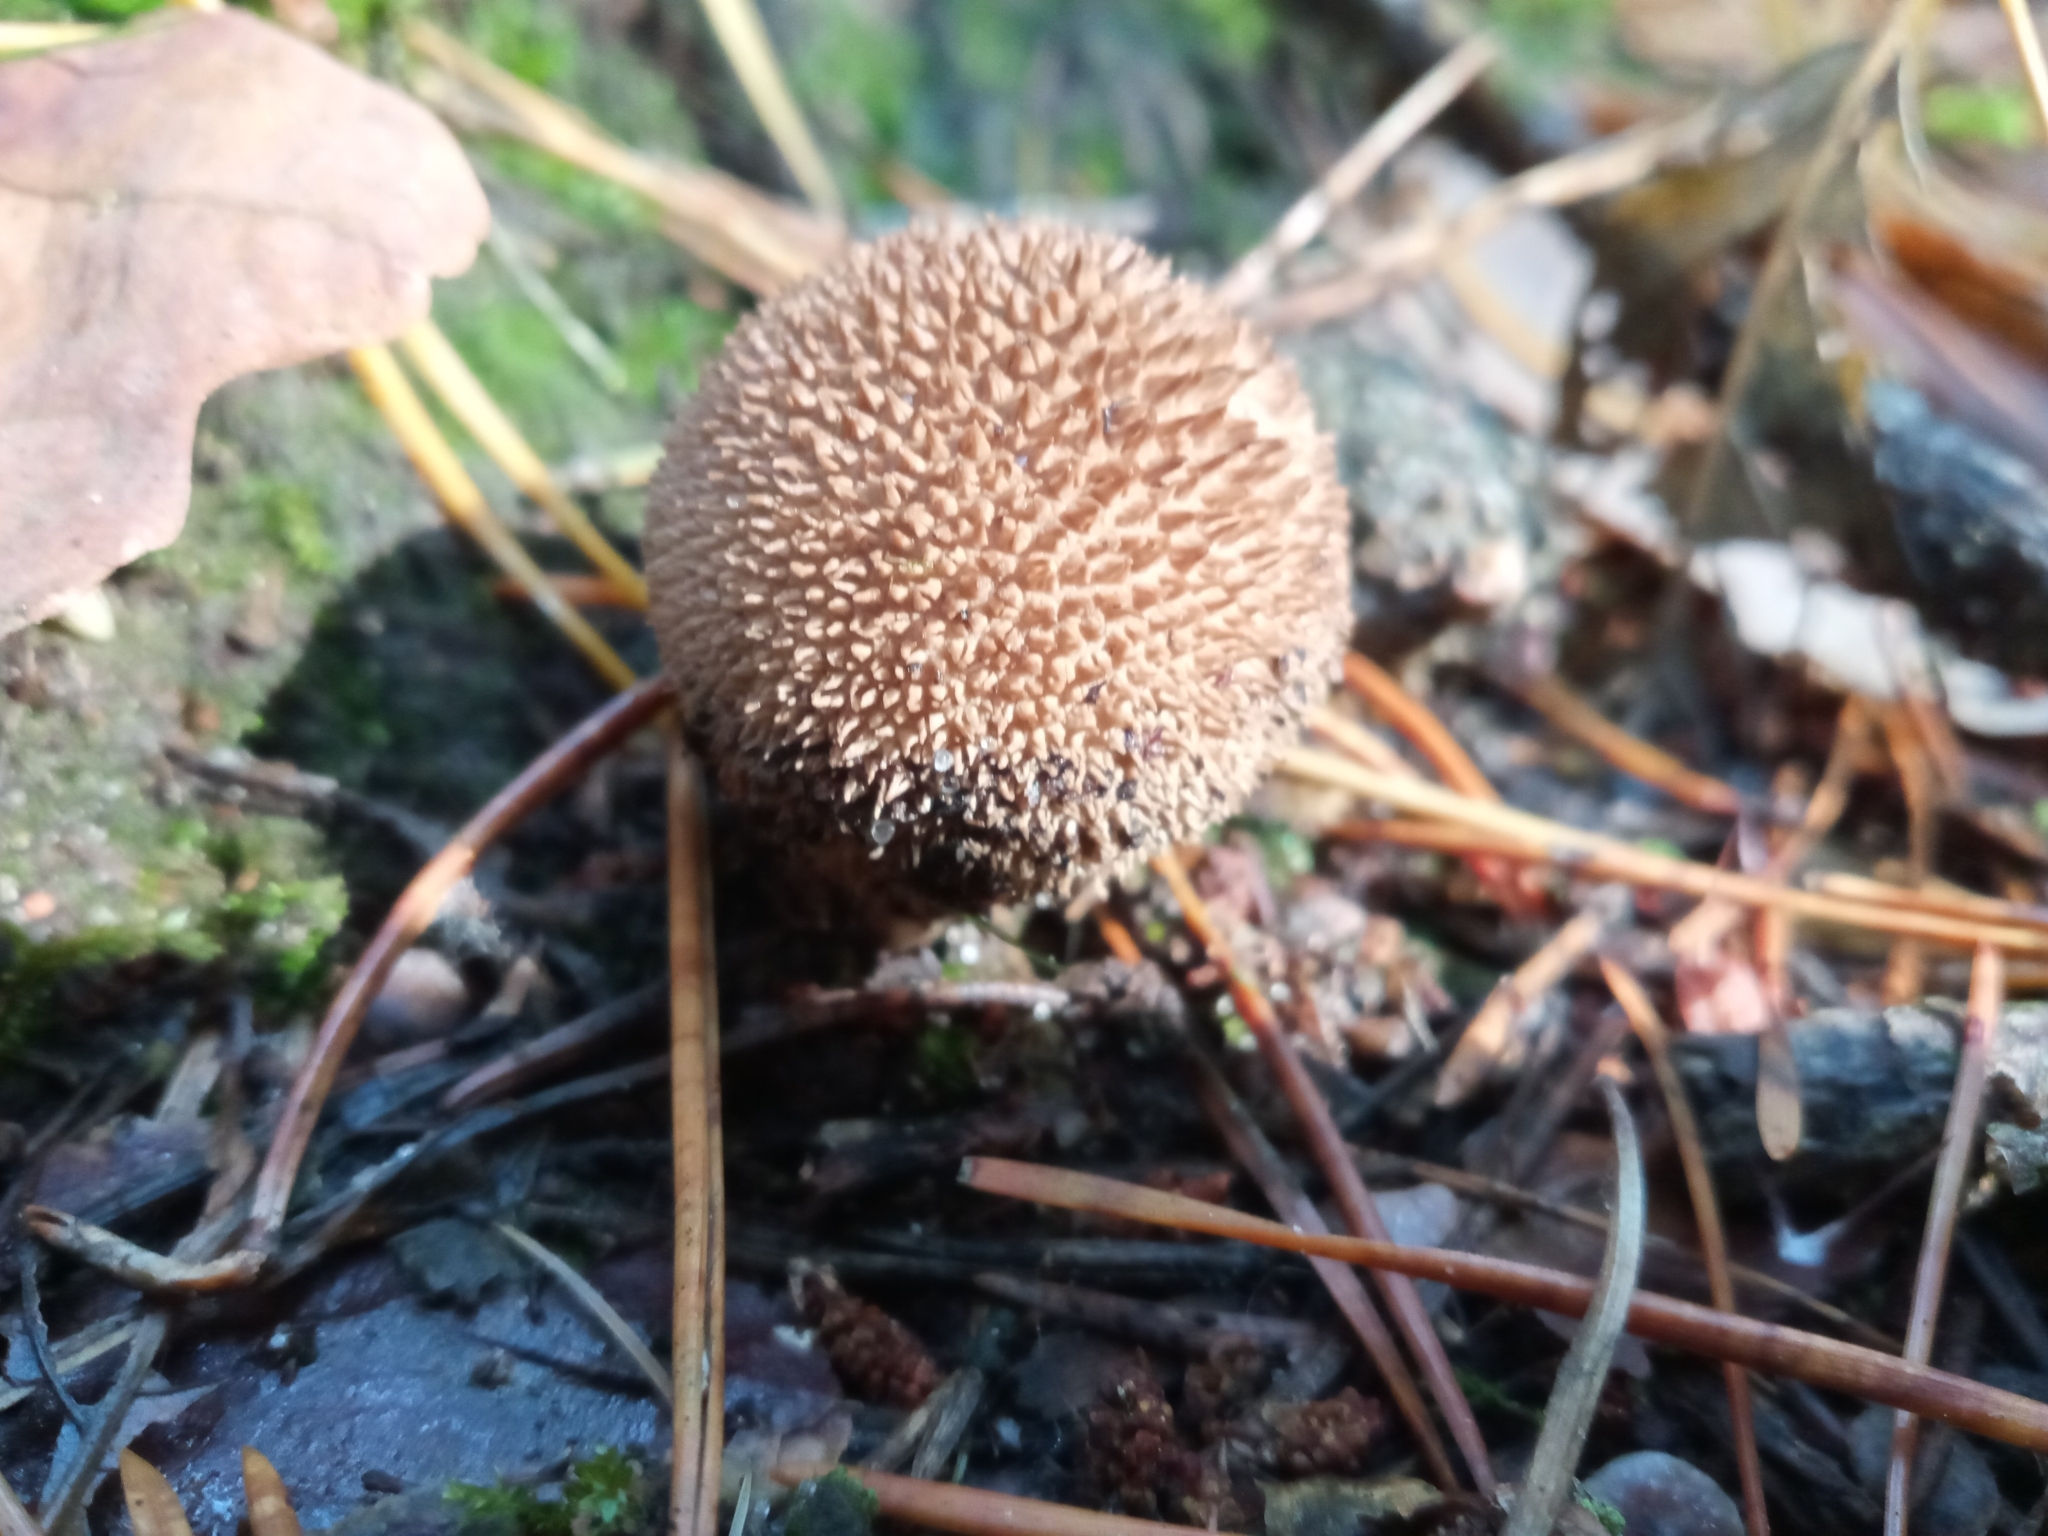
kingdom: Fungi
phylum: Basidiomycota
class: Agaricomycetes
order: Agaricales
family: Lycoperdaceae
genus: Lycoperdon
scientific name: Lycoperdon echinatum
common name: Hedgehog puffball
